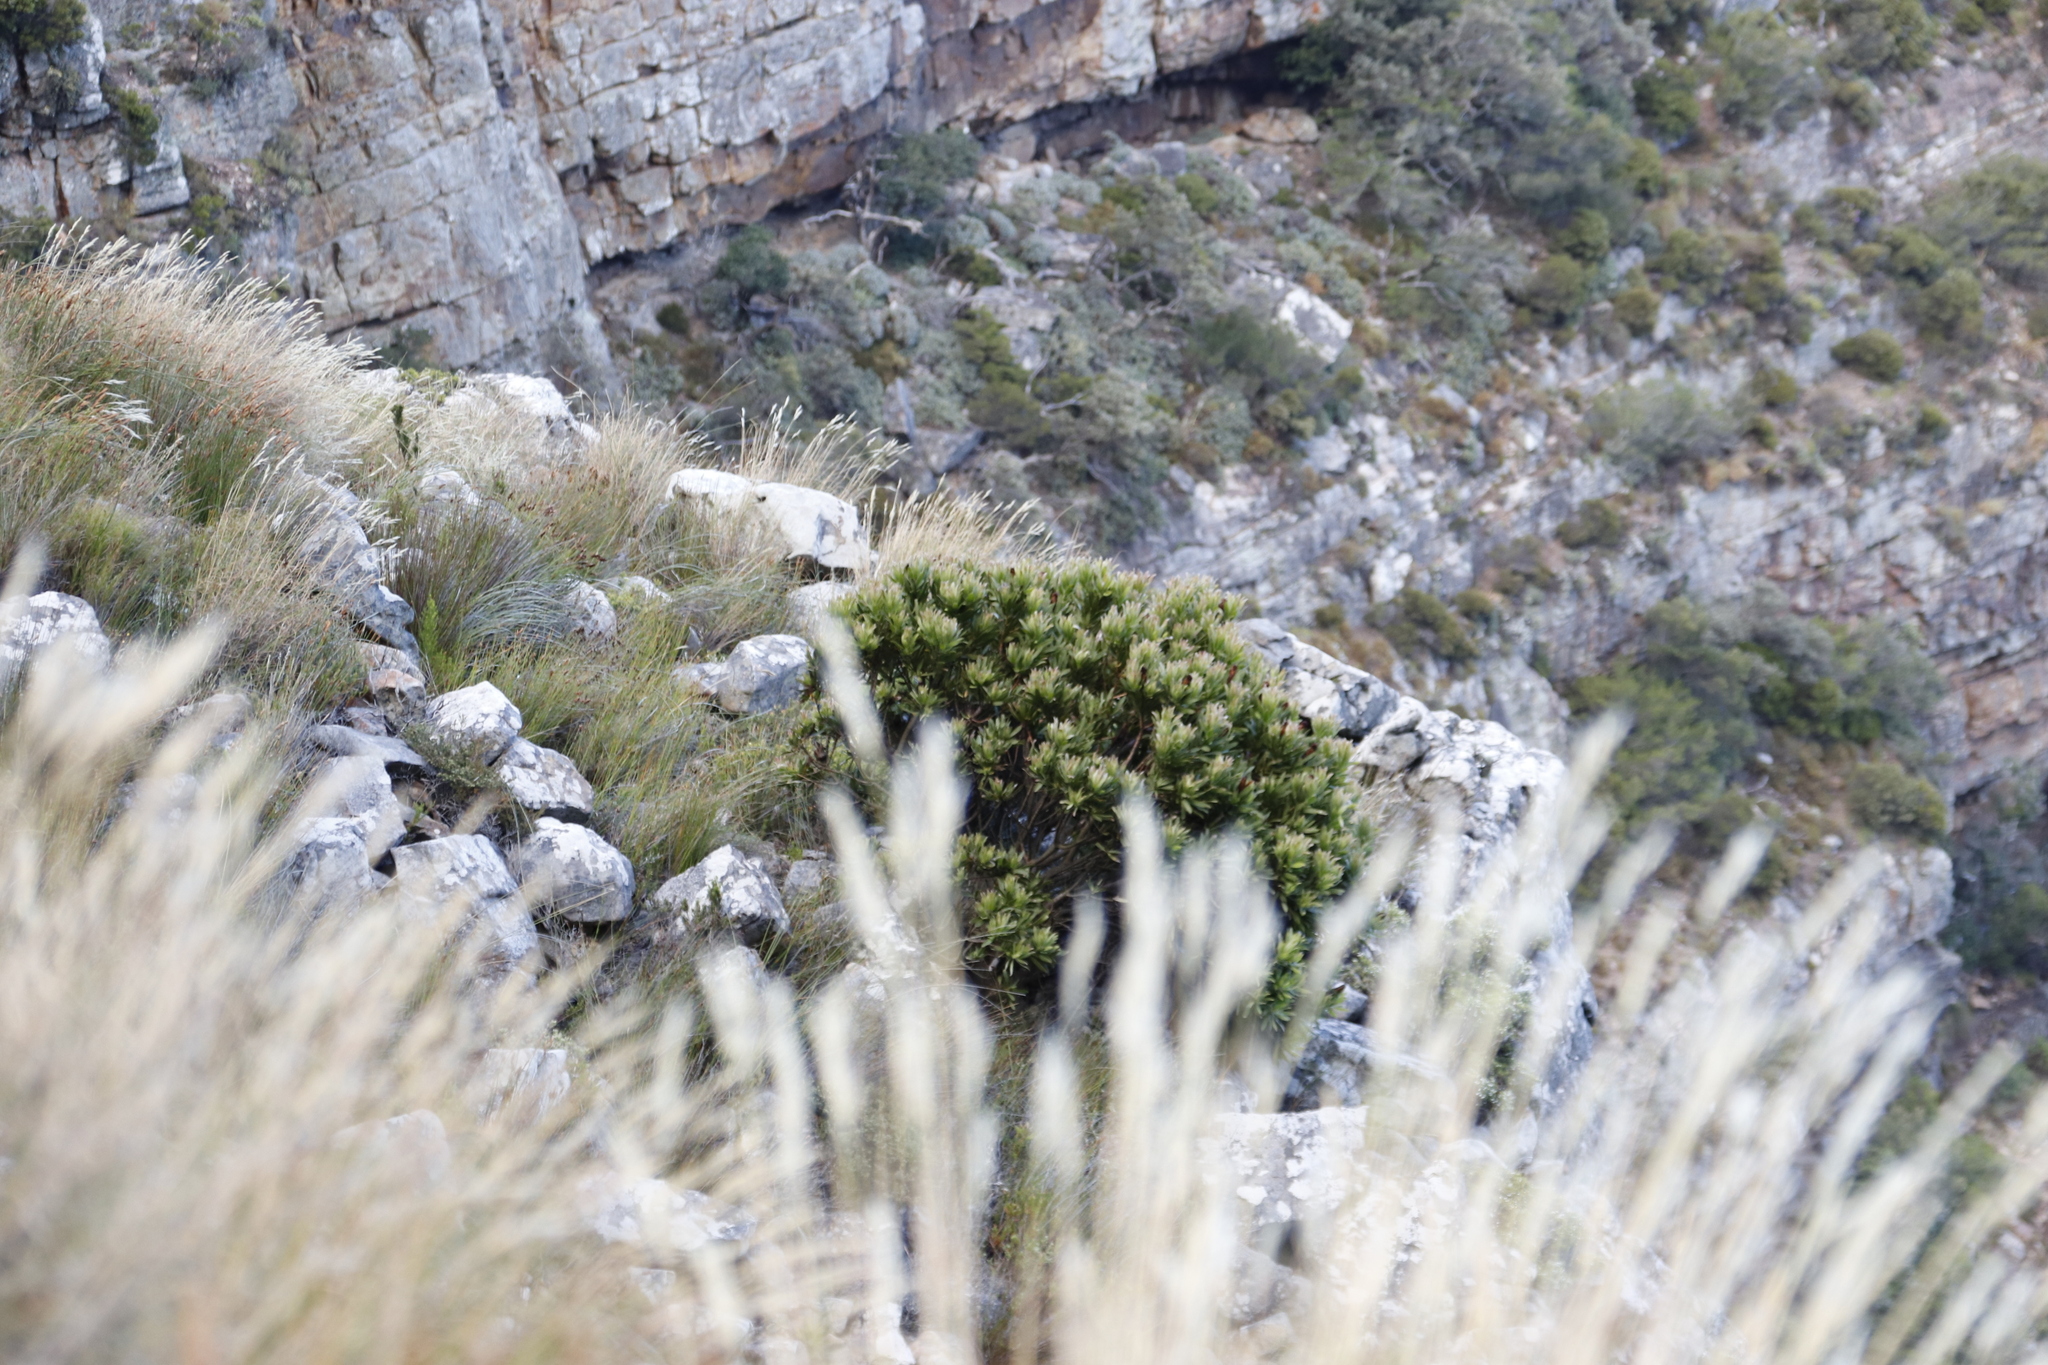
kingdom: Plantae
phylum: Tracheophyta
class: Magnoliopsida
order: Proteales
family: Proteaceae
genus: Protea
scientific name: Protea lepidocarpodendron
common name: Black-bearded protea
